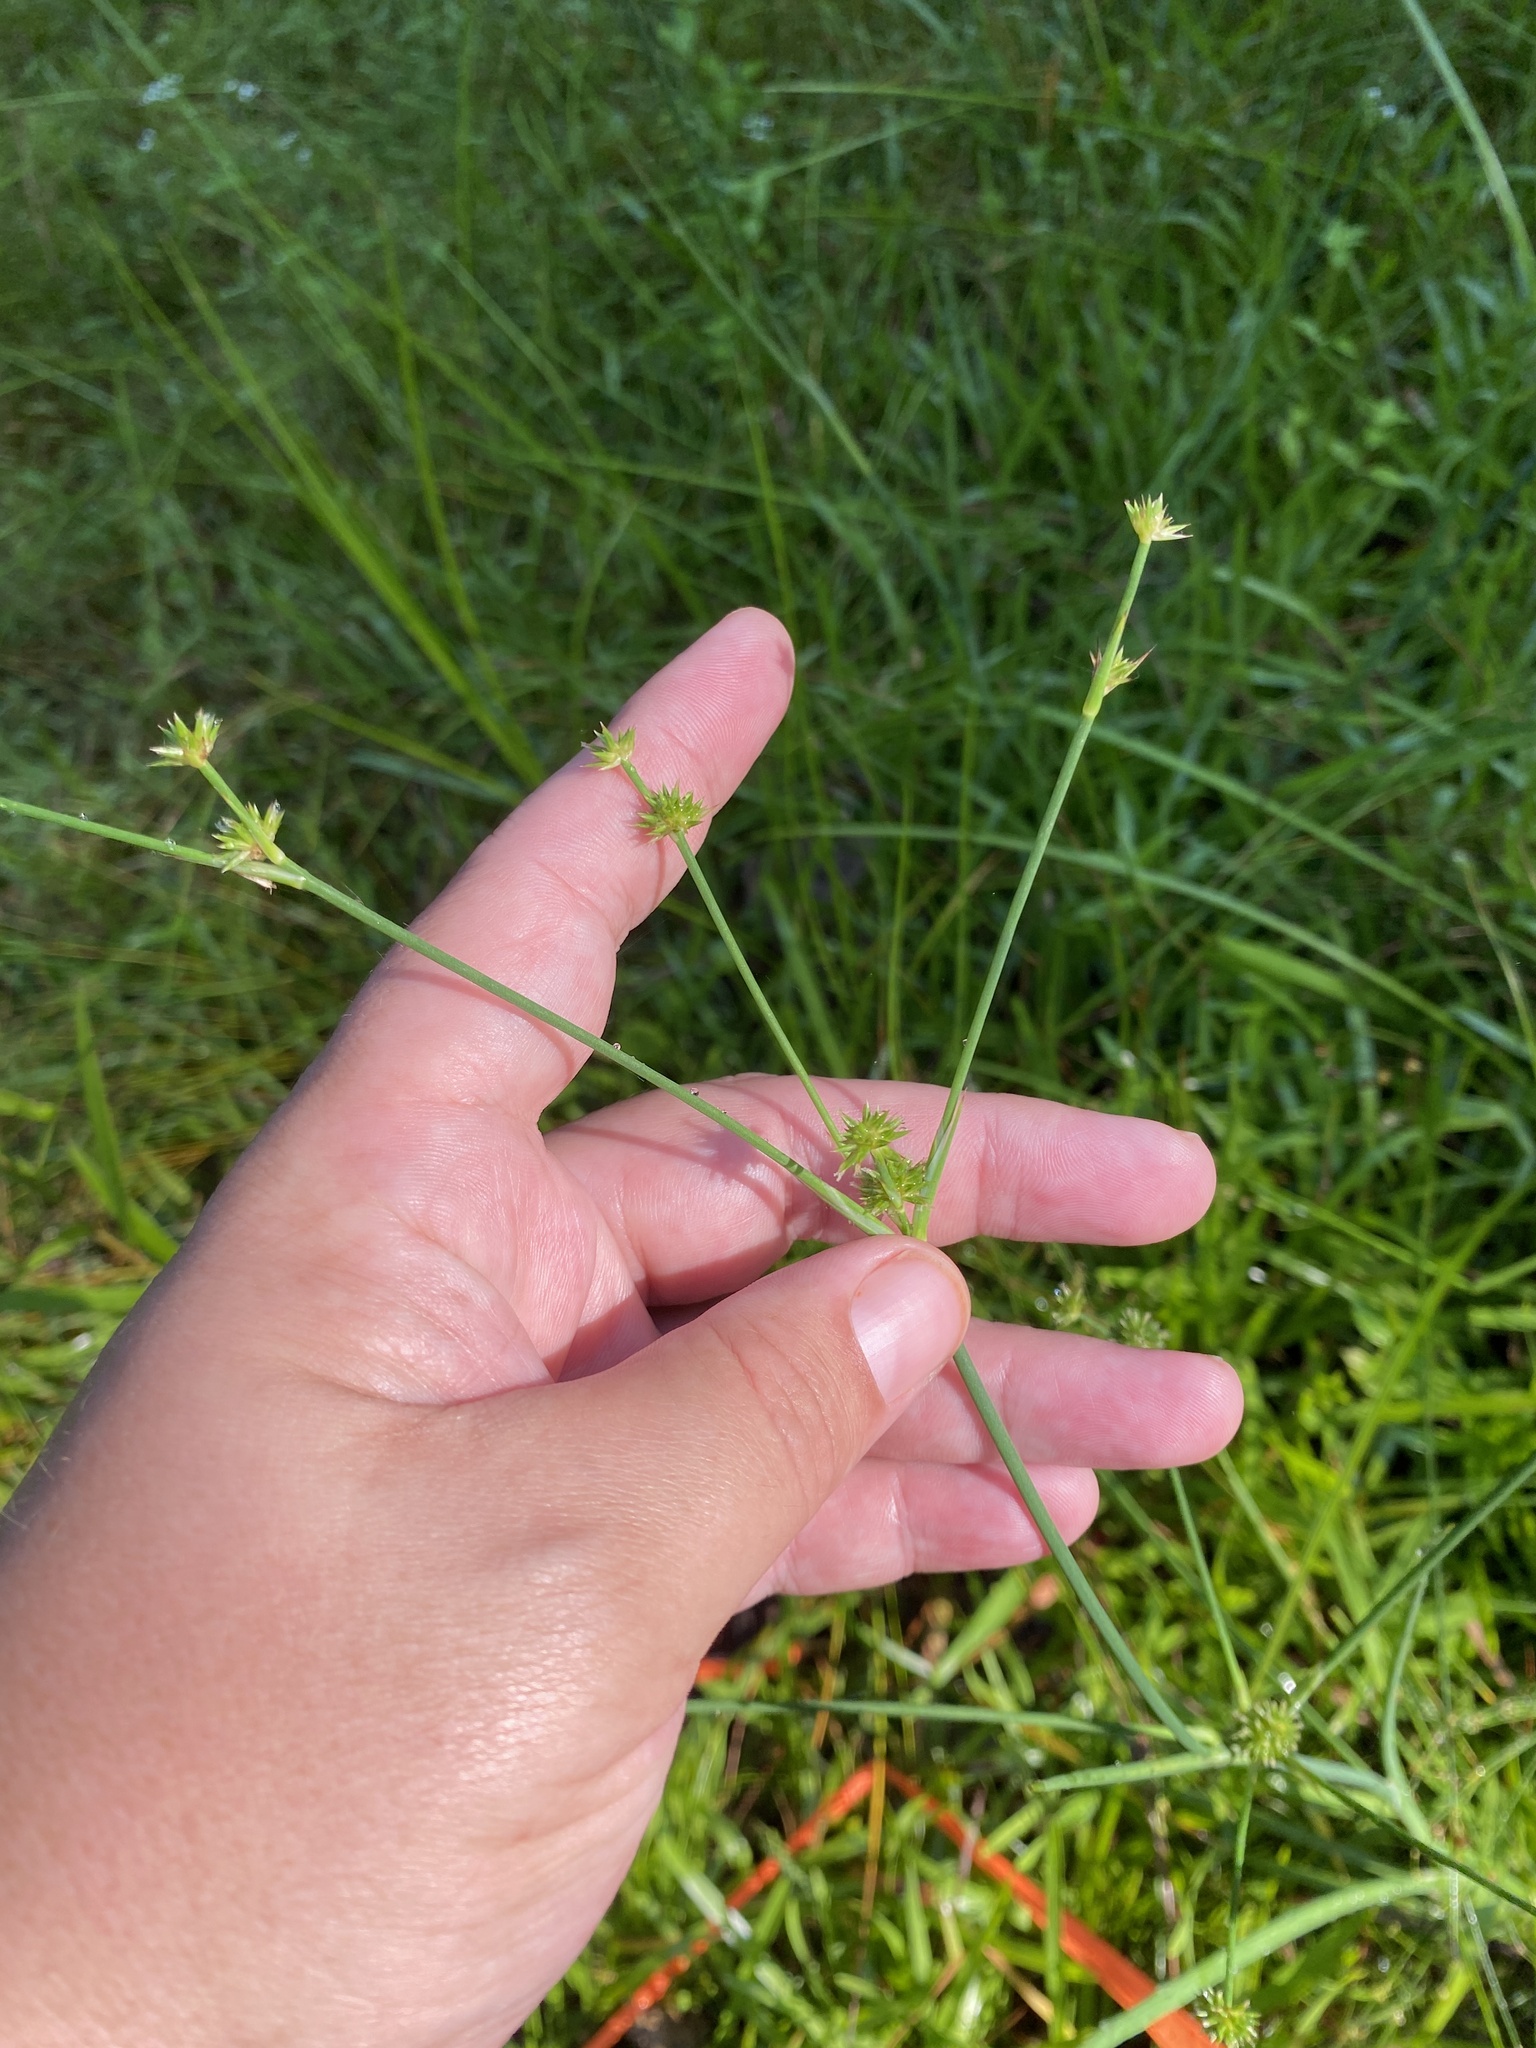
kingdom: Plantae
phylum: Tracheophyta
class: Liliopsida
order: Poales
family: Juncaceae
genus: Juncus
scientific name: Juncus validus
